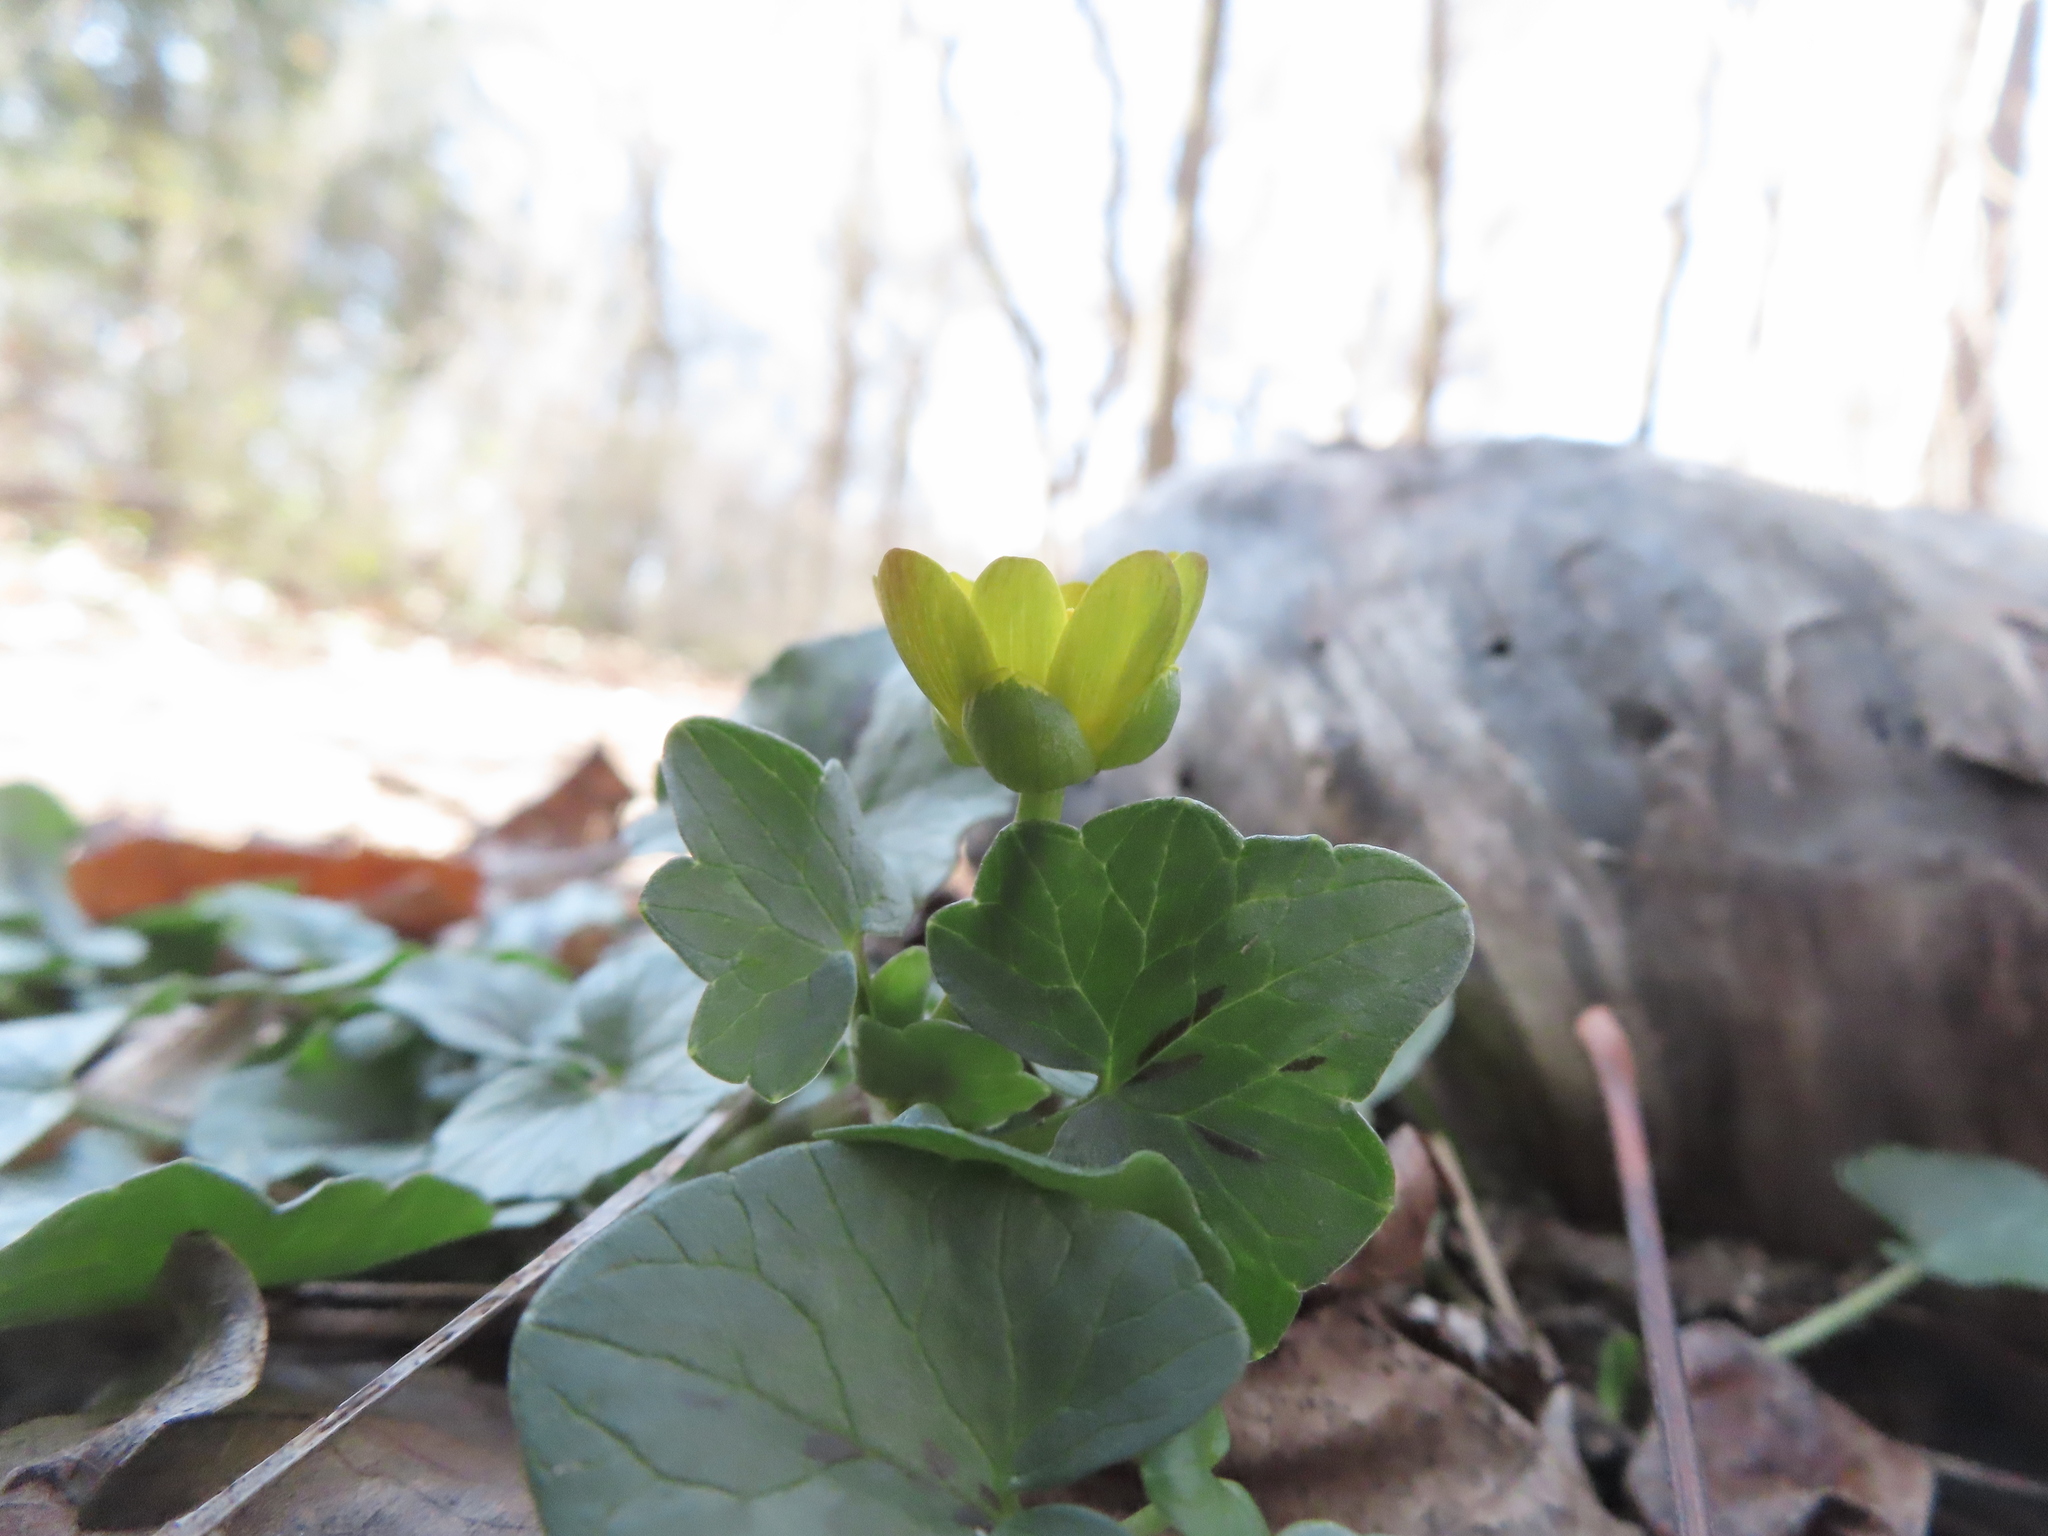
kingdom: Plantae
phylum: Tracheophyta
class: Magnoliopsida
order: Ranunculales
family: Ranunculaceae
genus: Ficaria
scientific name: Ficaria verna
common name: Lesser celandine
